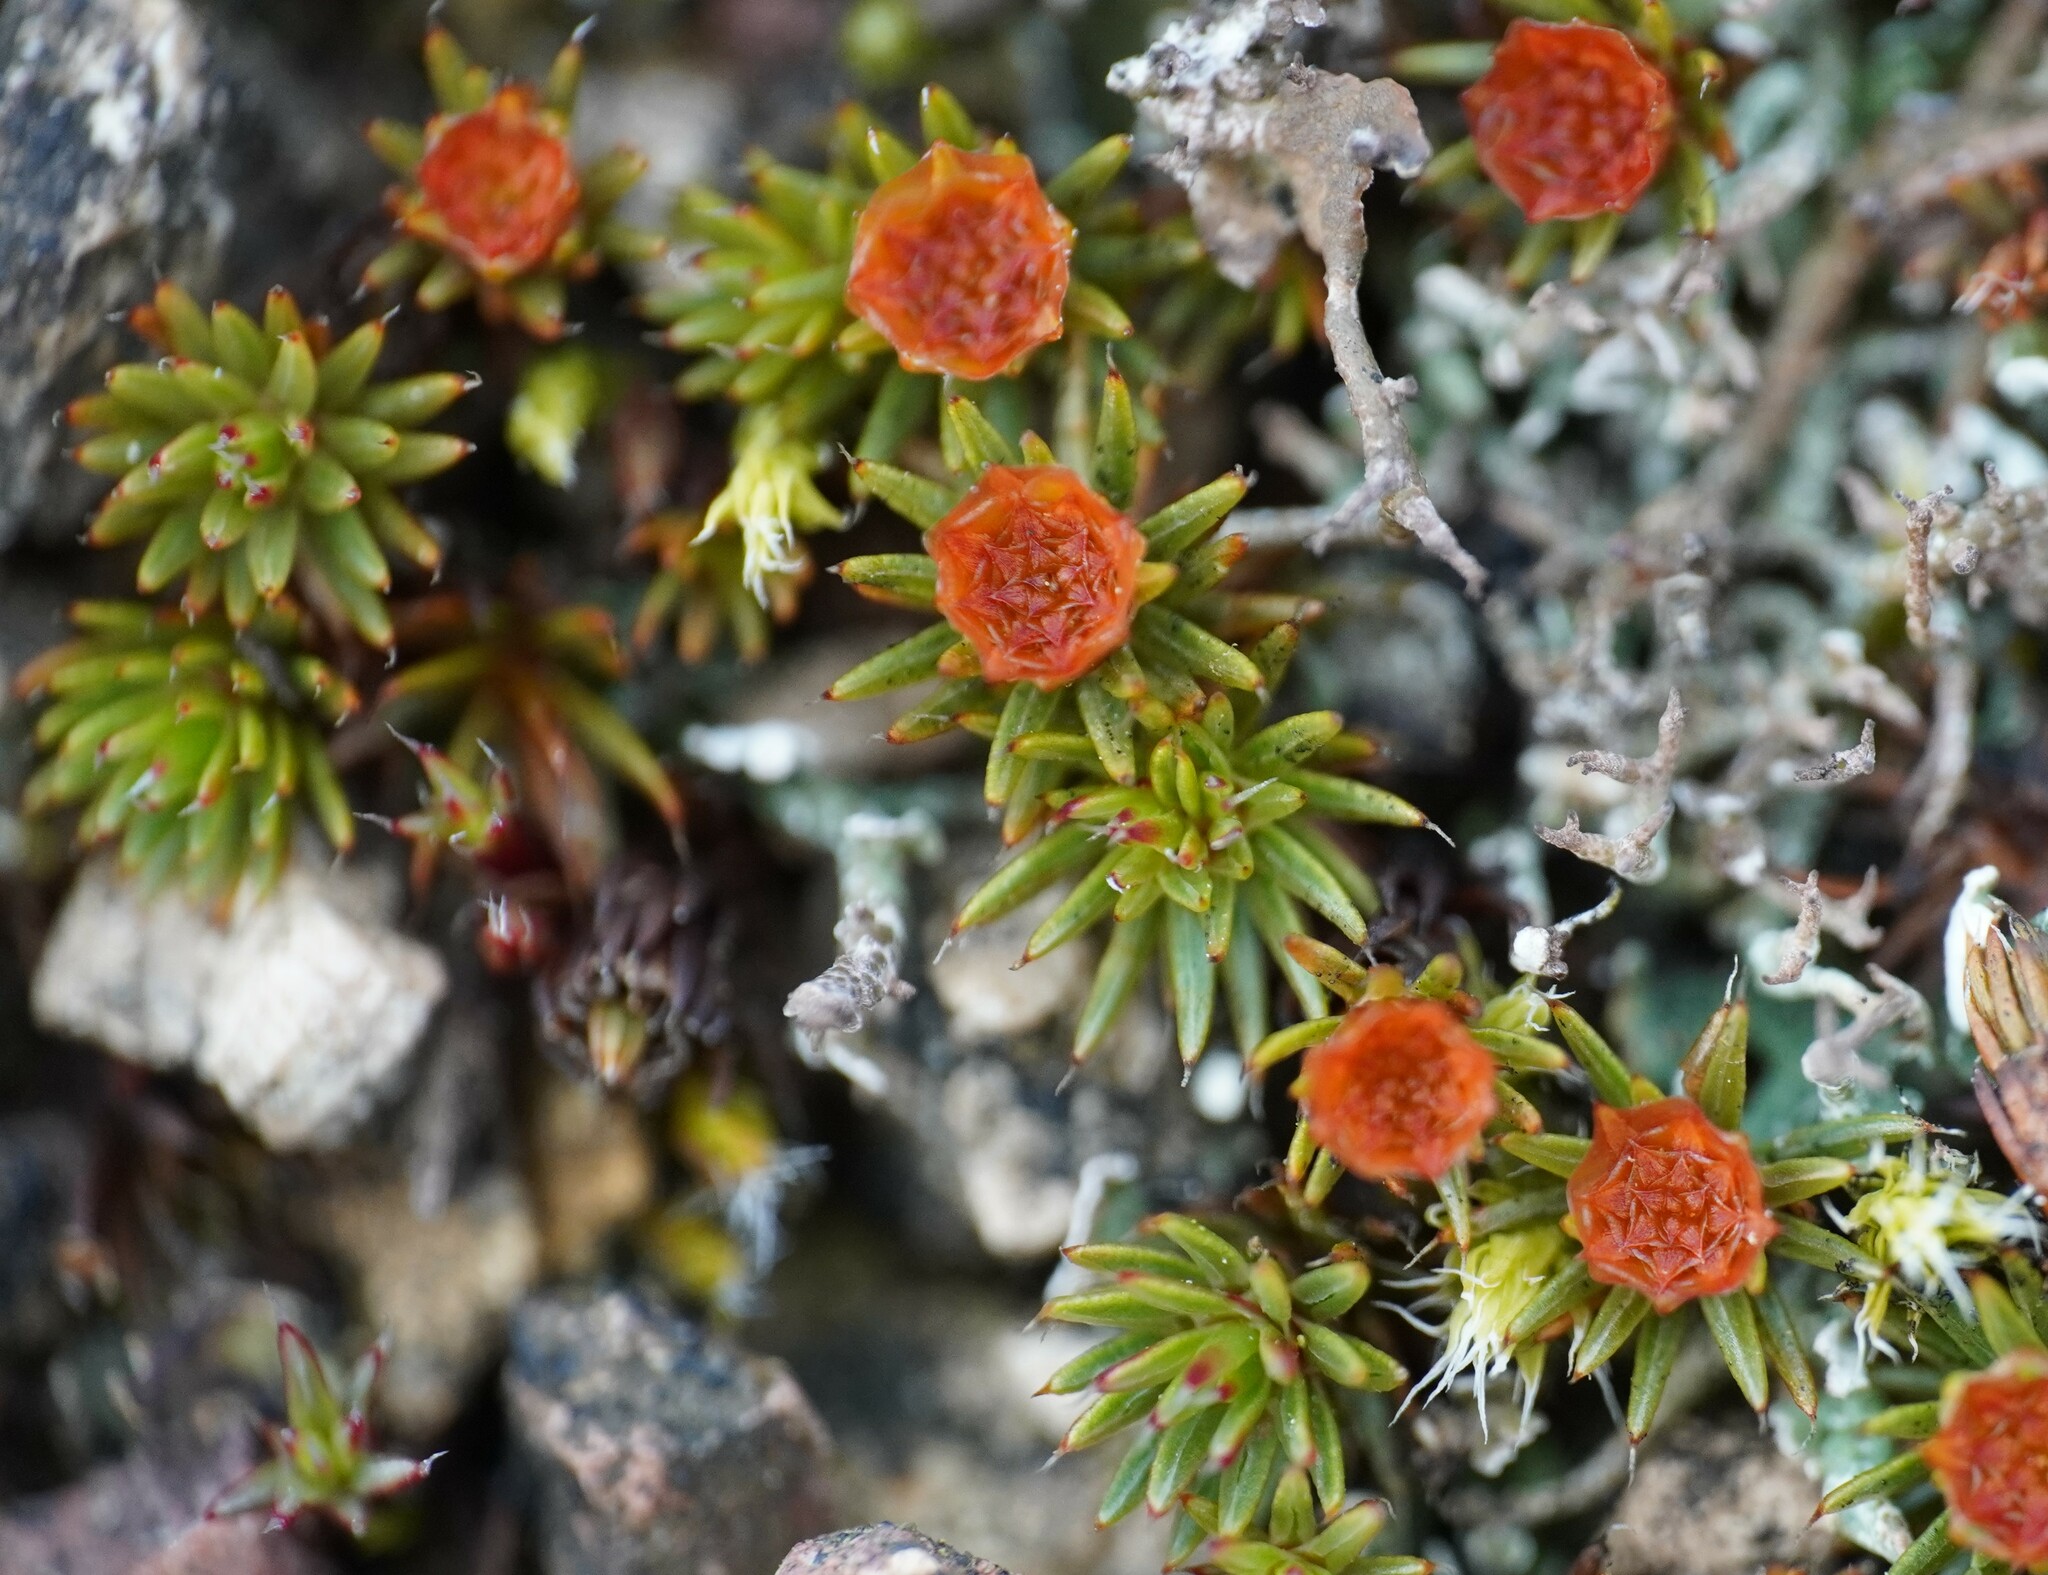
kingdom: Plantae
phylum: Bryophyta
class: Polytrichopsida
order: Polytrichales
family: Polytrichaceae
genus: Polytrichum
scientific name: Polytrichum piliferum
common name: Bristly haircap
